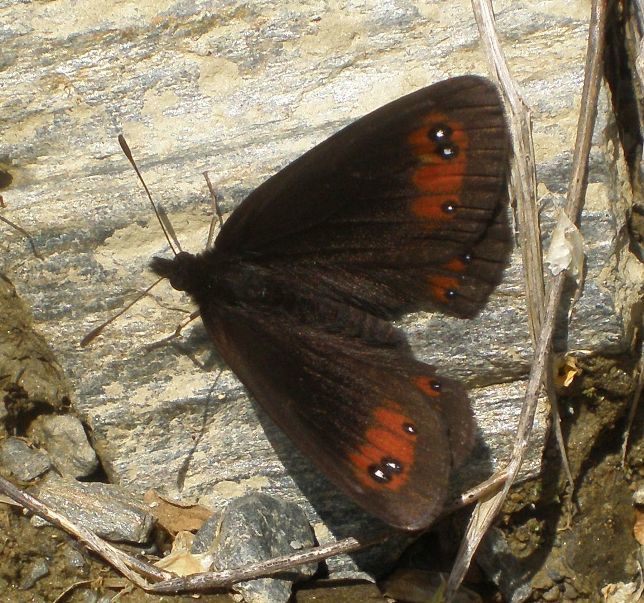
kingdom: Animalia
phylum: Arthropoda
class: Insecta
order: Lepidoptera
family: Nymphalidae
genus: Erebia
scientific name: Erebia meolans
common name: Piedmont ringlet
